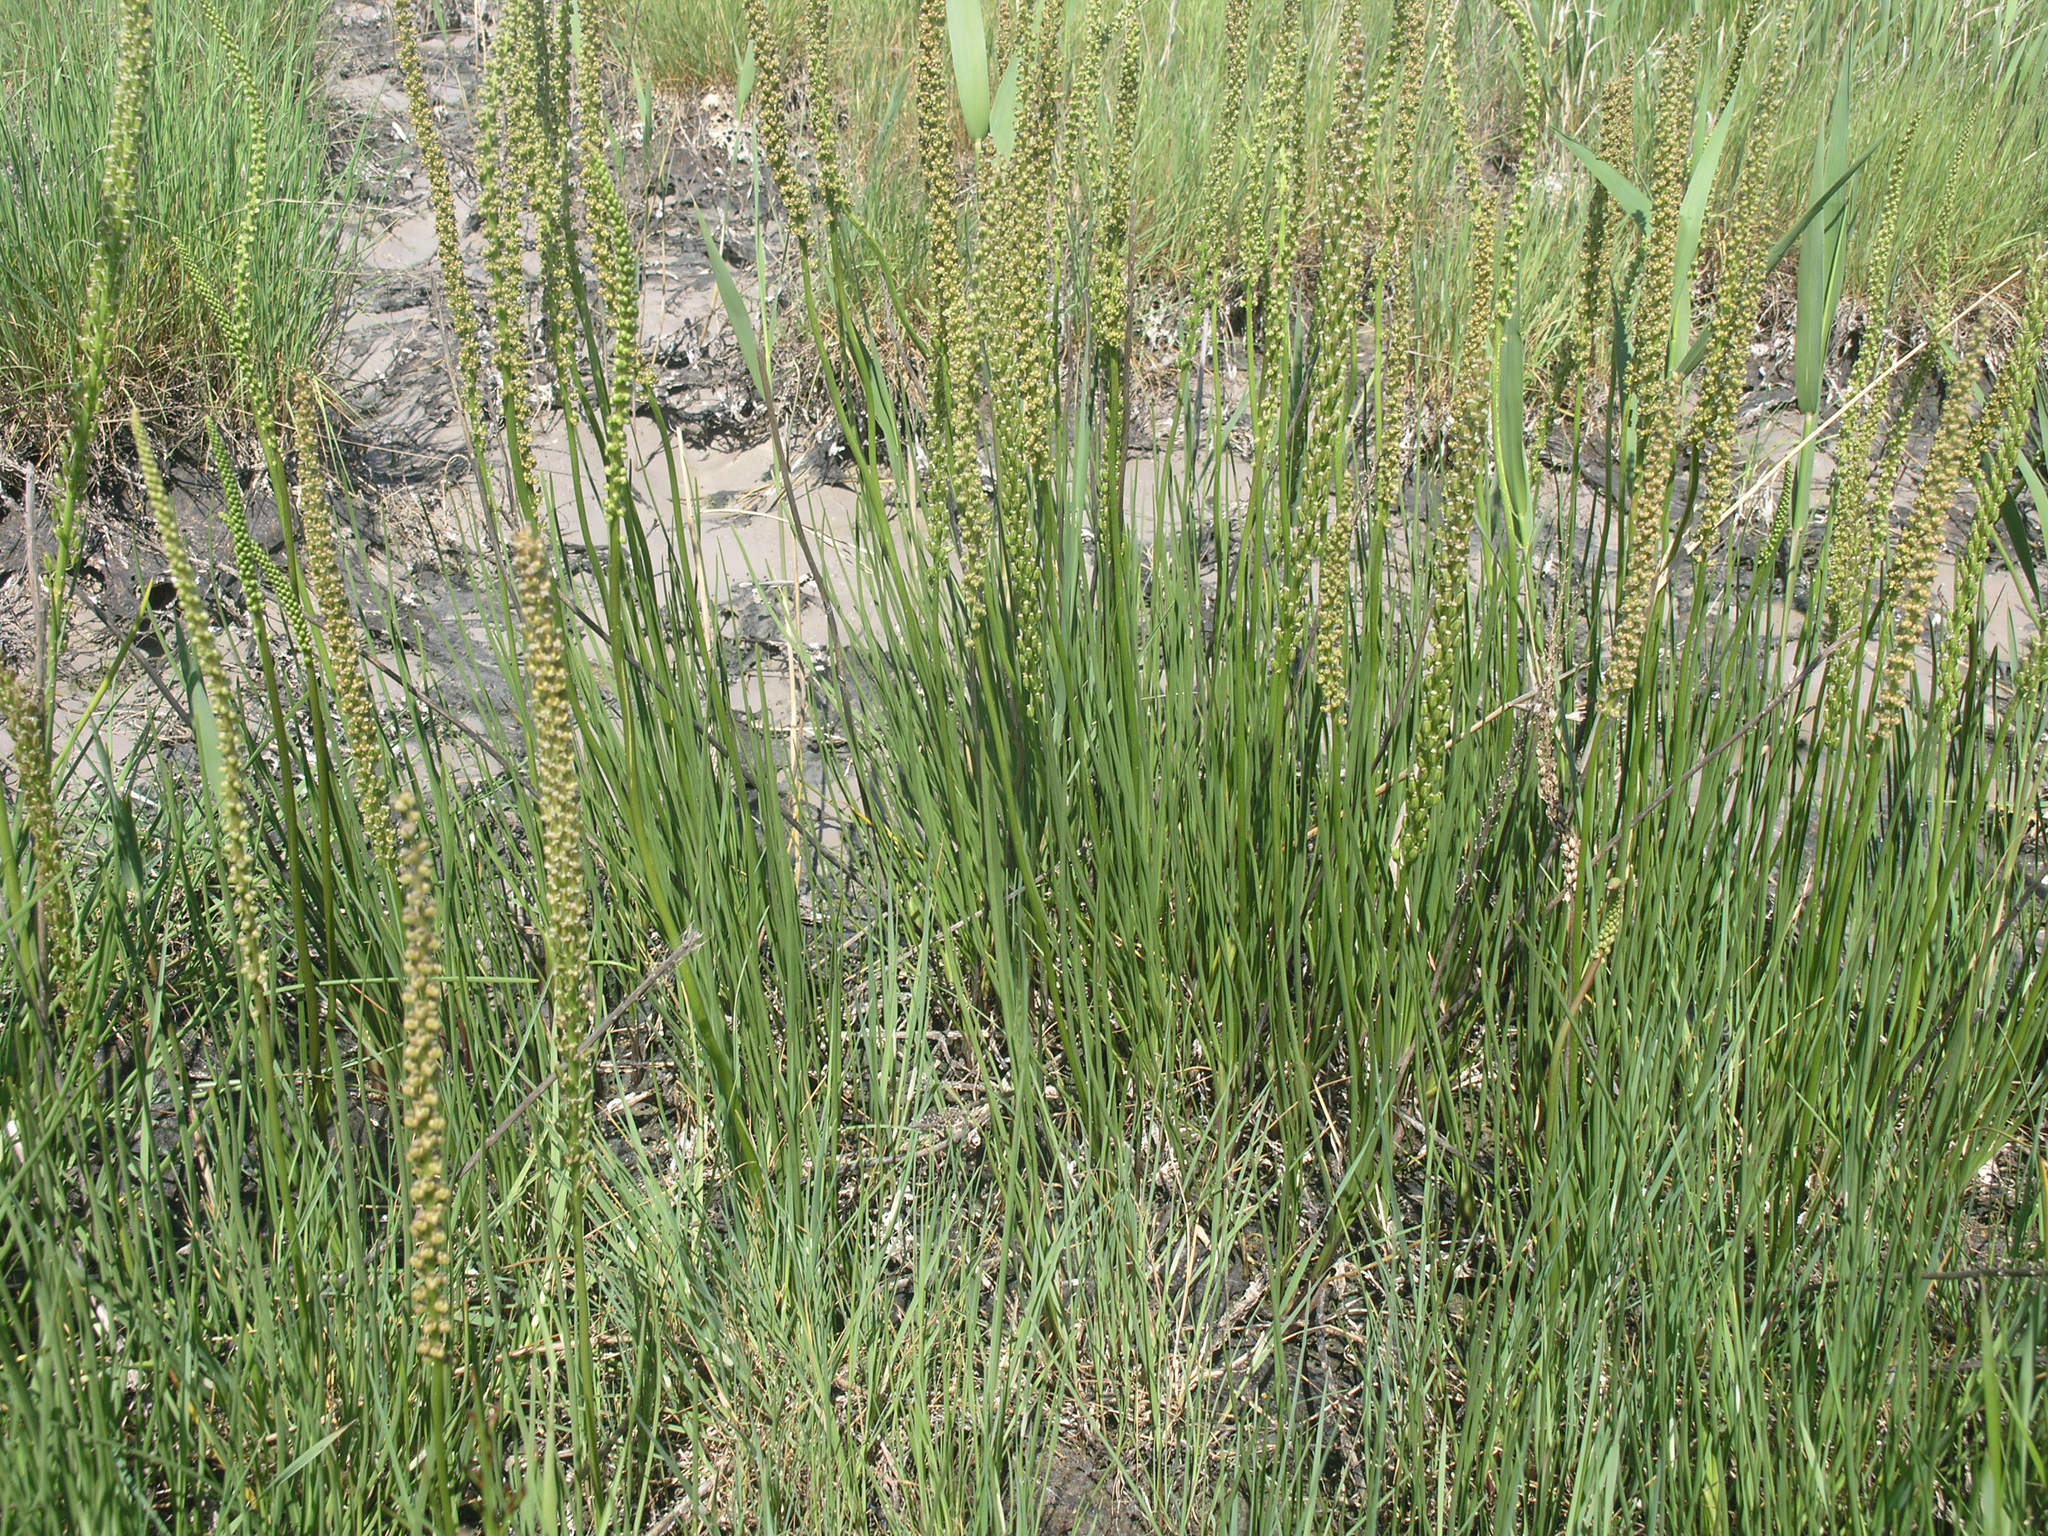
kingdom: Plantae
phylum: Tracheophyta
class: Liliopsida
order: Alismatales
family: Juncaginaceae
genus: Triglochin
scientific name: Triglochin maritima
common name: Sea arrowgrass
